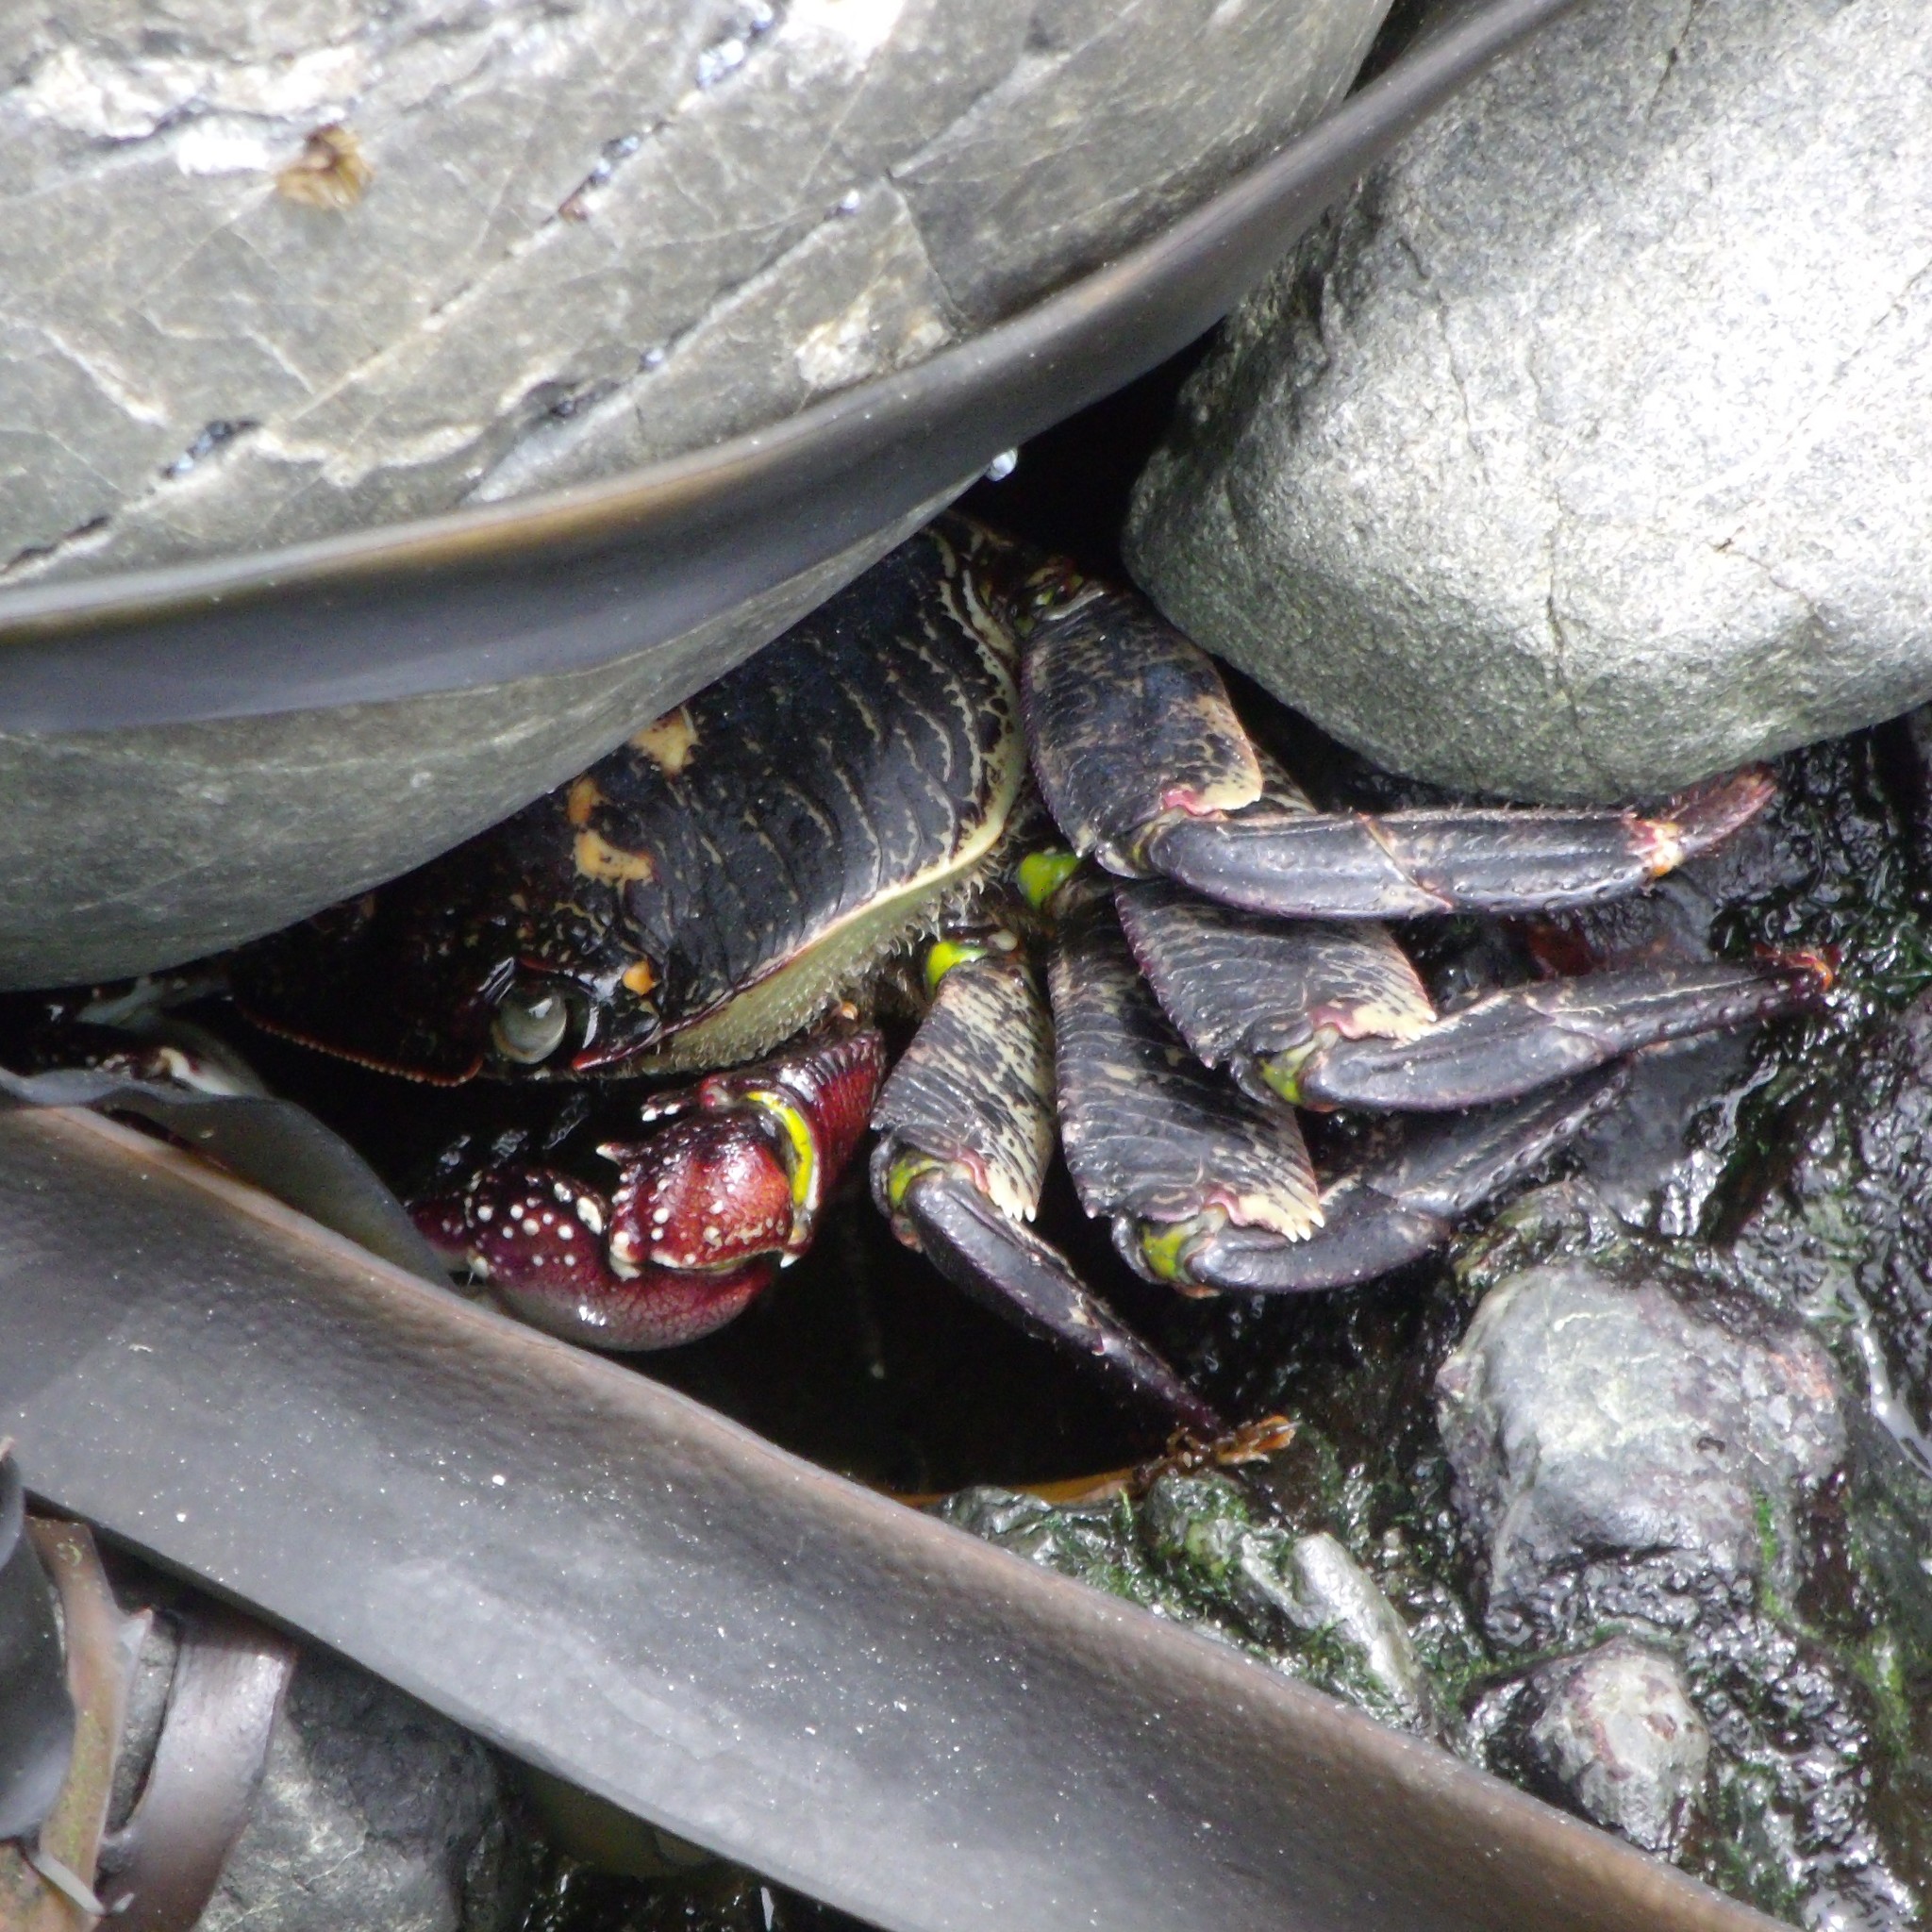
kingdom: Animalia
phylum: Arthropoda
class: Malacostraca
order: Decapoda
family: Grapsidae
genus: Leptograpsus
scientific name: Leptograpsus variegatus
